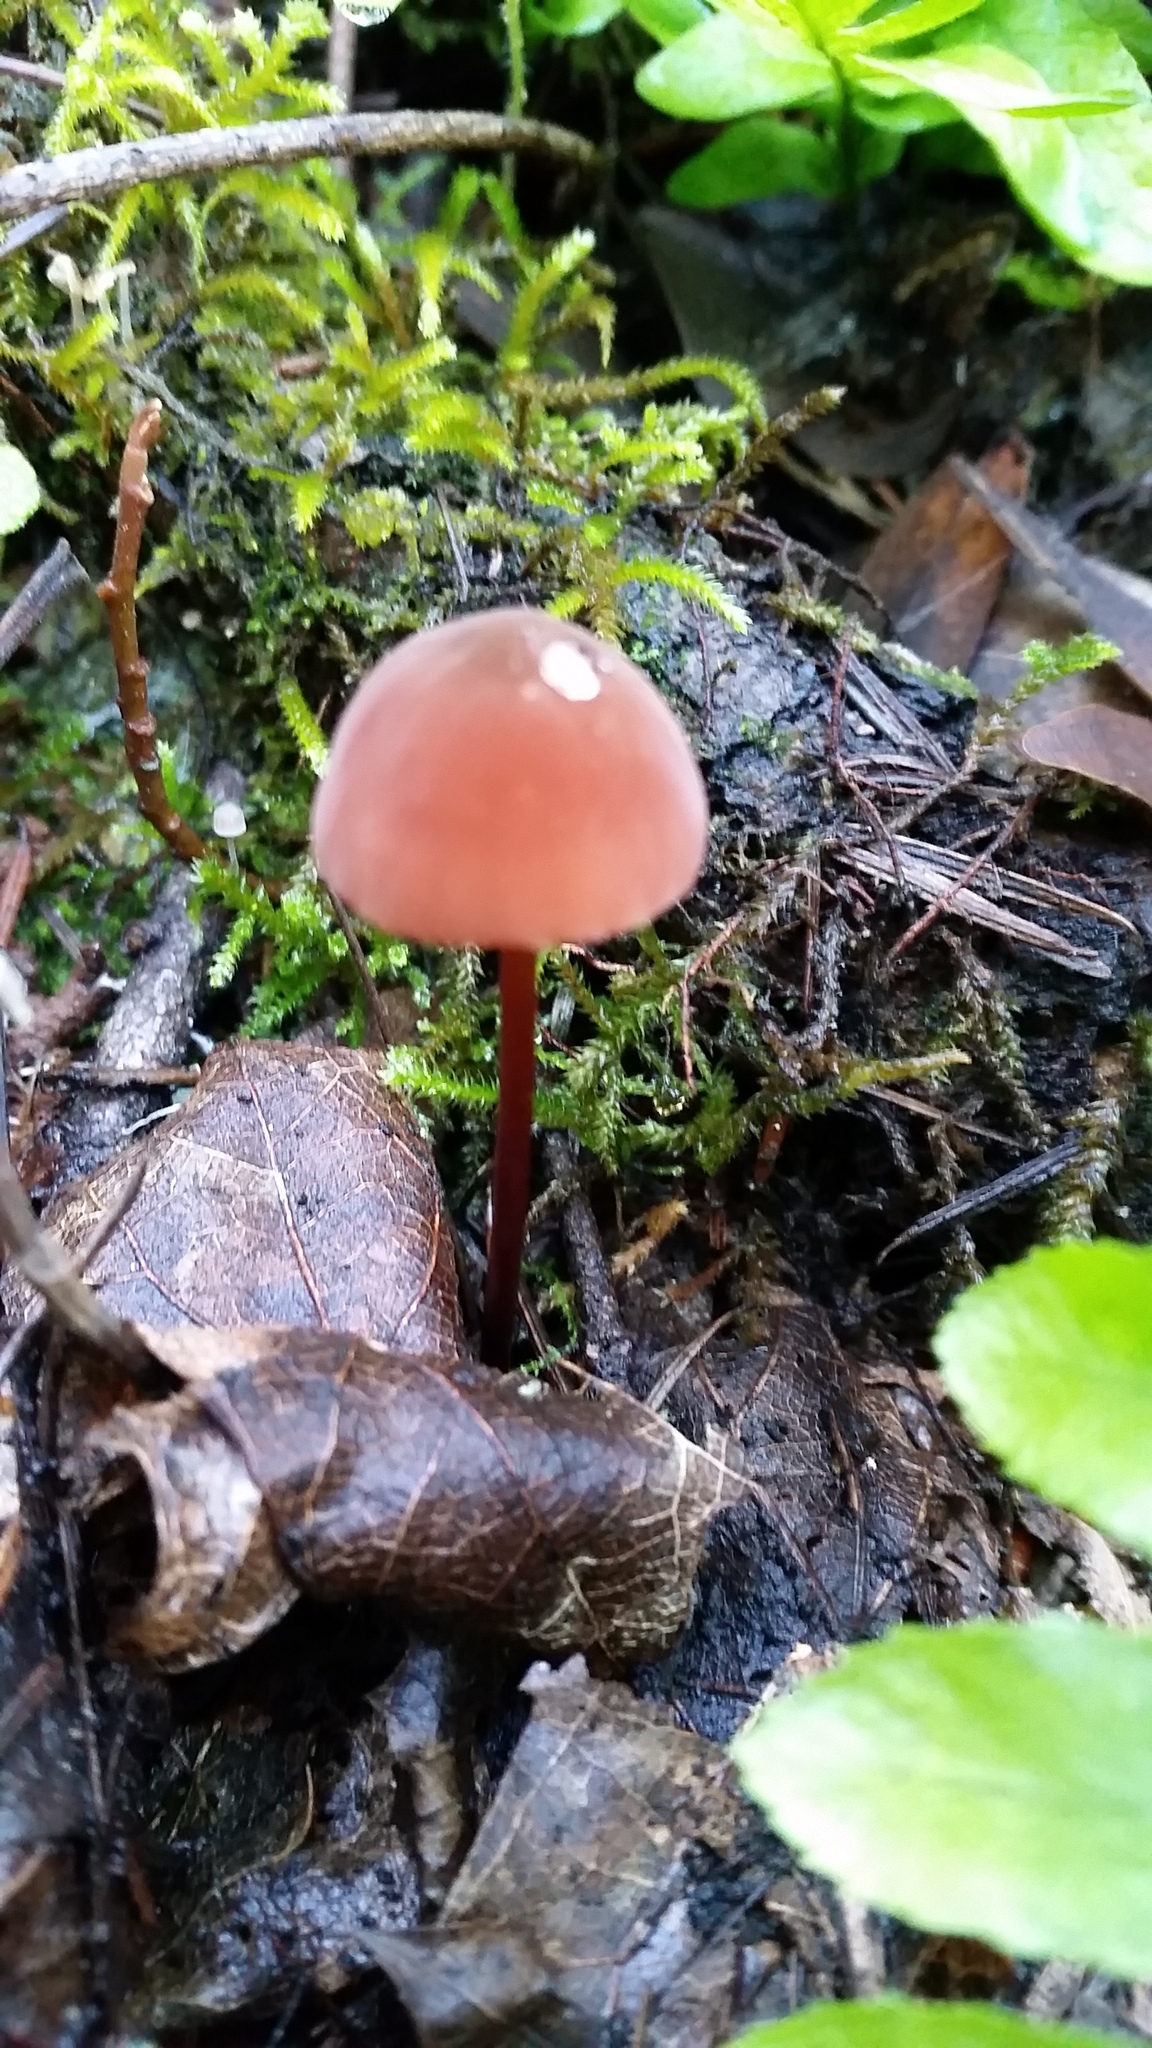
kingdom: Fungi
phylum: Basidiomycota
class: Agaricomycetes
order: Agaricales
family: Marasmiaceae
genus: Marasmius
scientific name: Marasmius plicatulus
